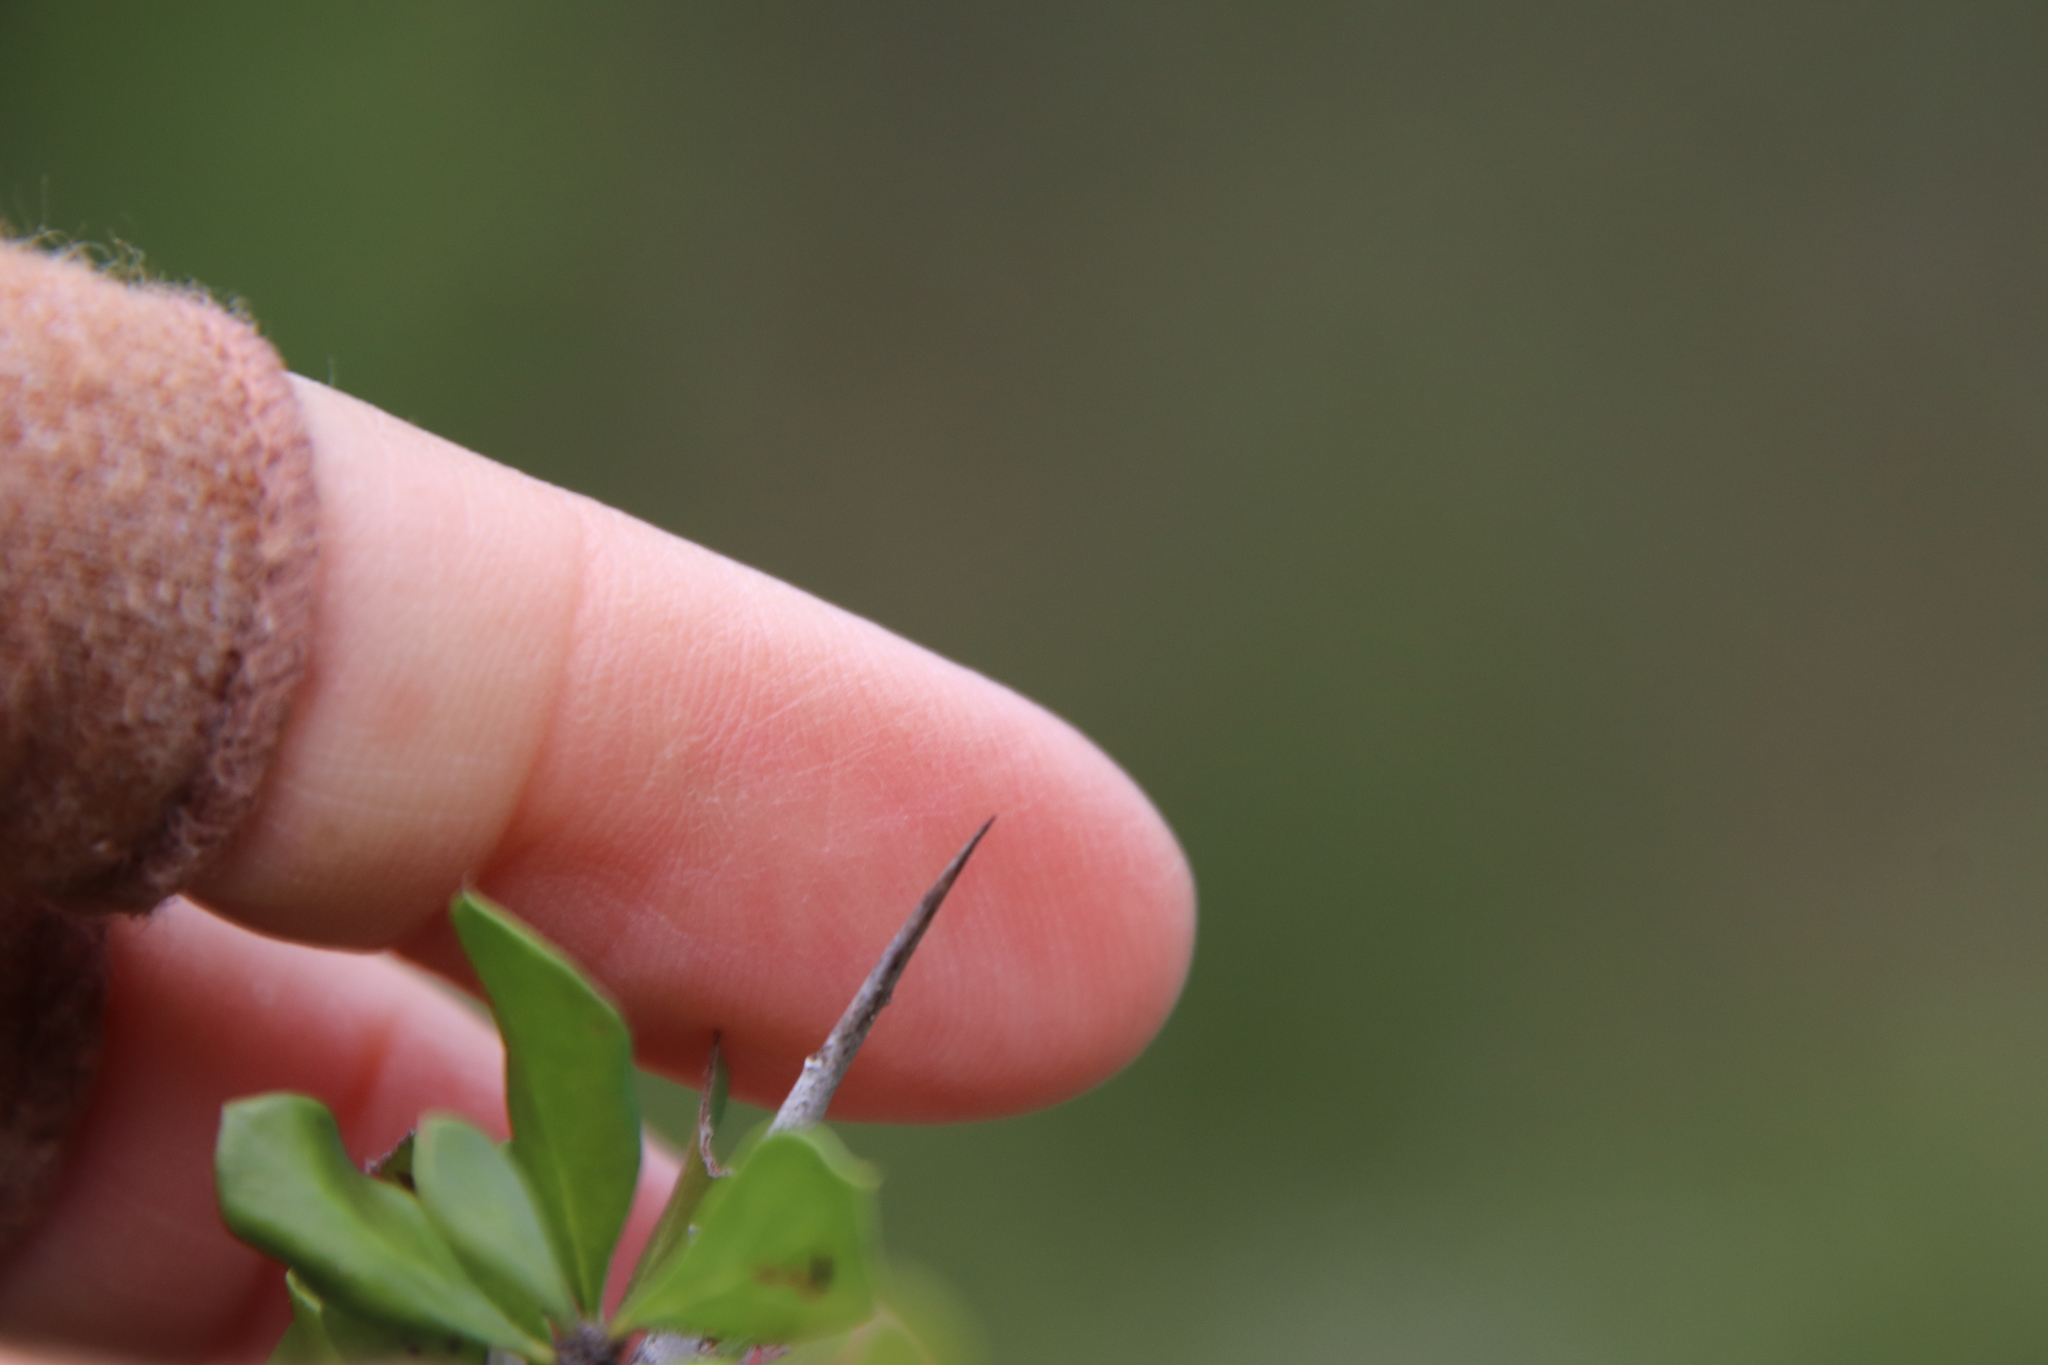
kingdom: Plantae
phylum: Tracheophyta
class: Magnoliopsida
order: Rosales
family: Rhamnaceae
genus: Condalia
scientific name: Condalia viridis
